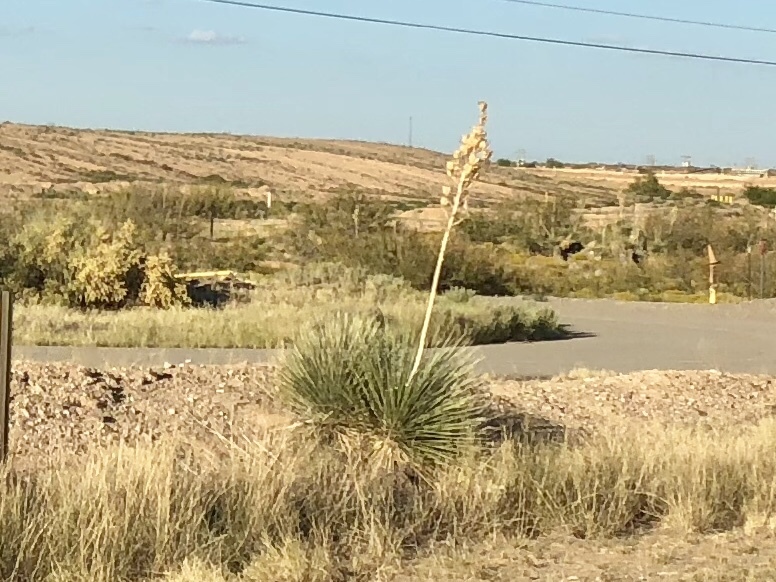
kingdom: Plantae
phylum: Tracheophyta
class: Liliopsida
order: Asparagales
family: Asparagaceae
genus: Yucca
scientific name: Yucca elata
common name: Palmella
